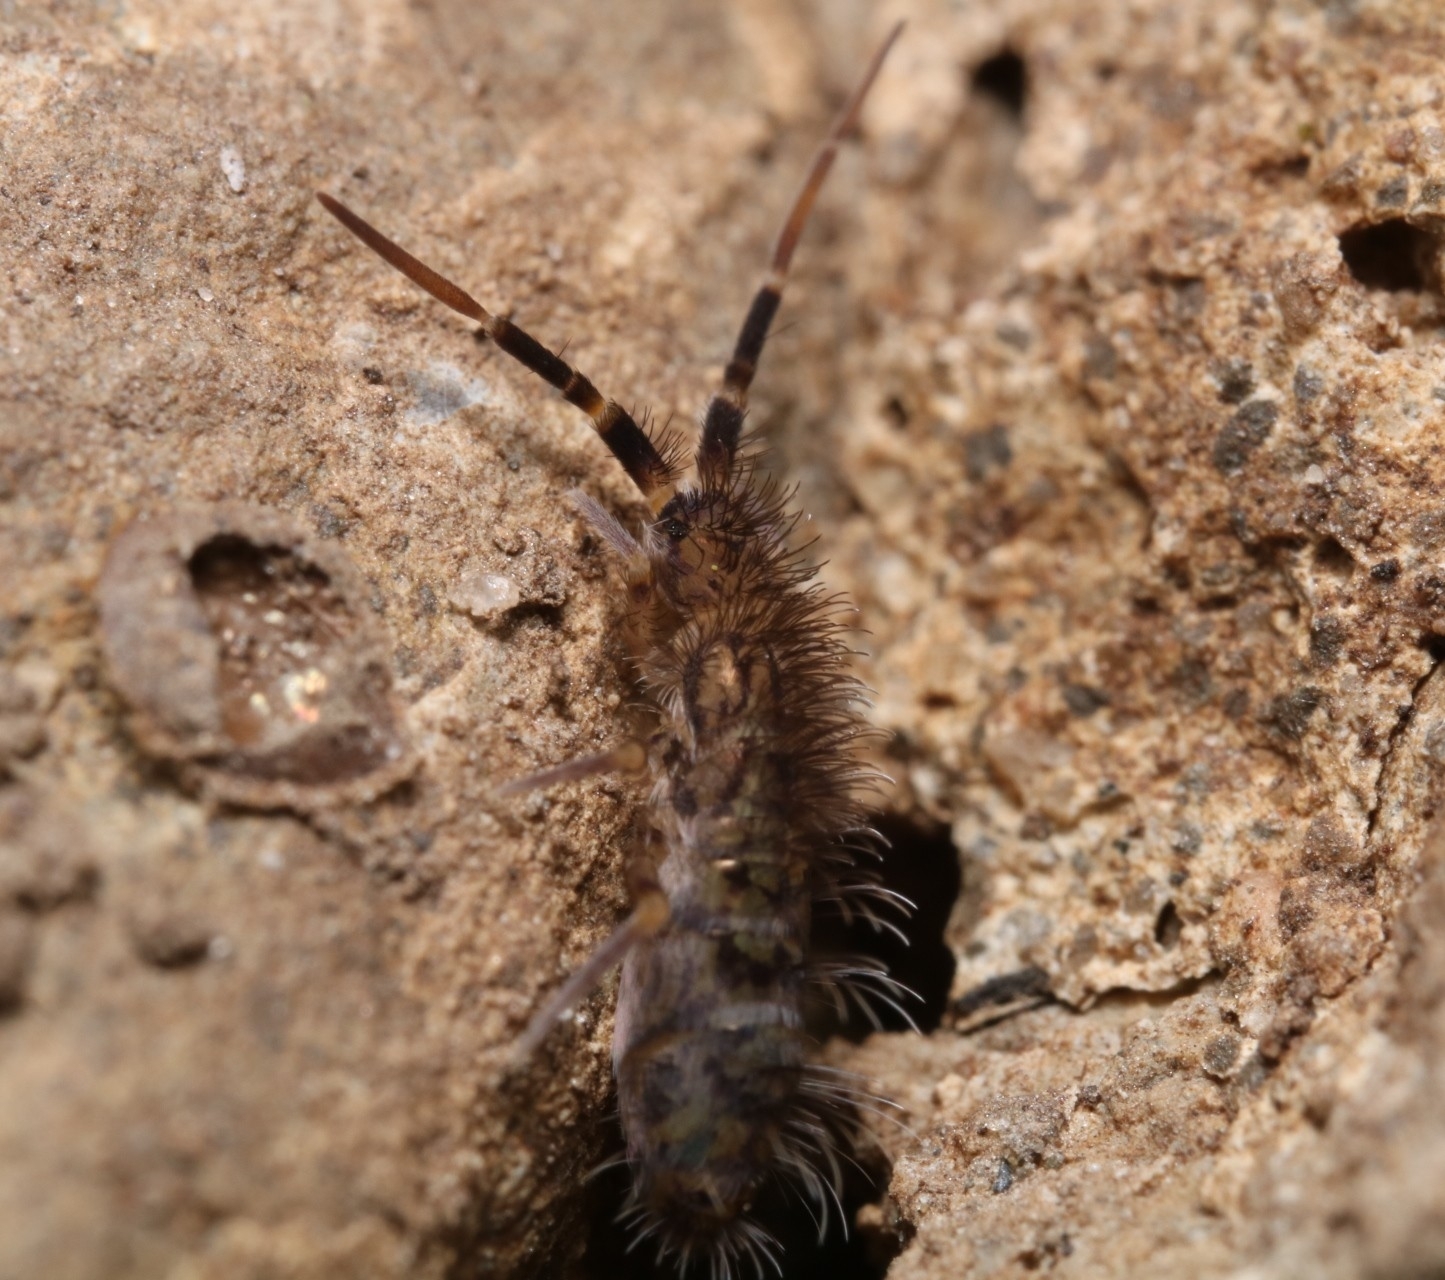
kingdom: Animalia
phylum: Arthropoda
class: Collembola
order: Entomobryomorpha
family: Orchesellidae
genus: Orchesella
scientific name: Orchesella villosa
